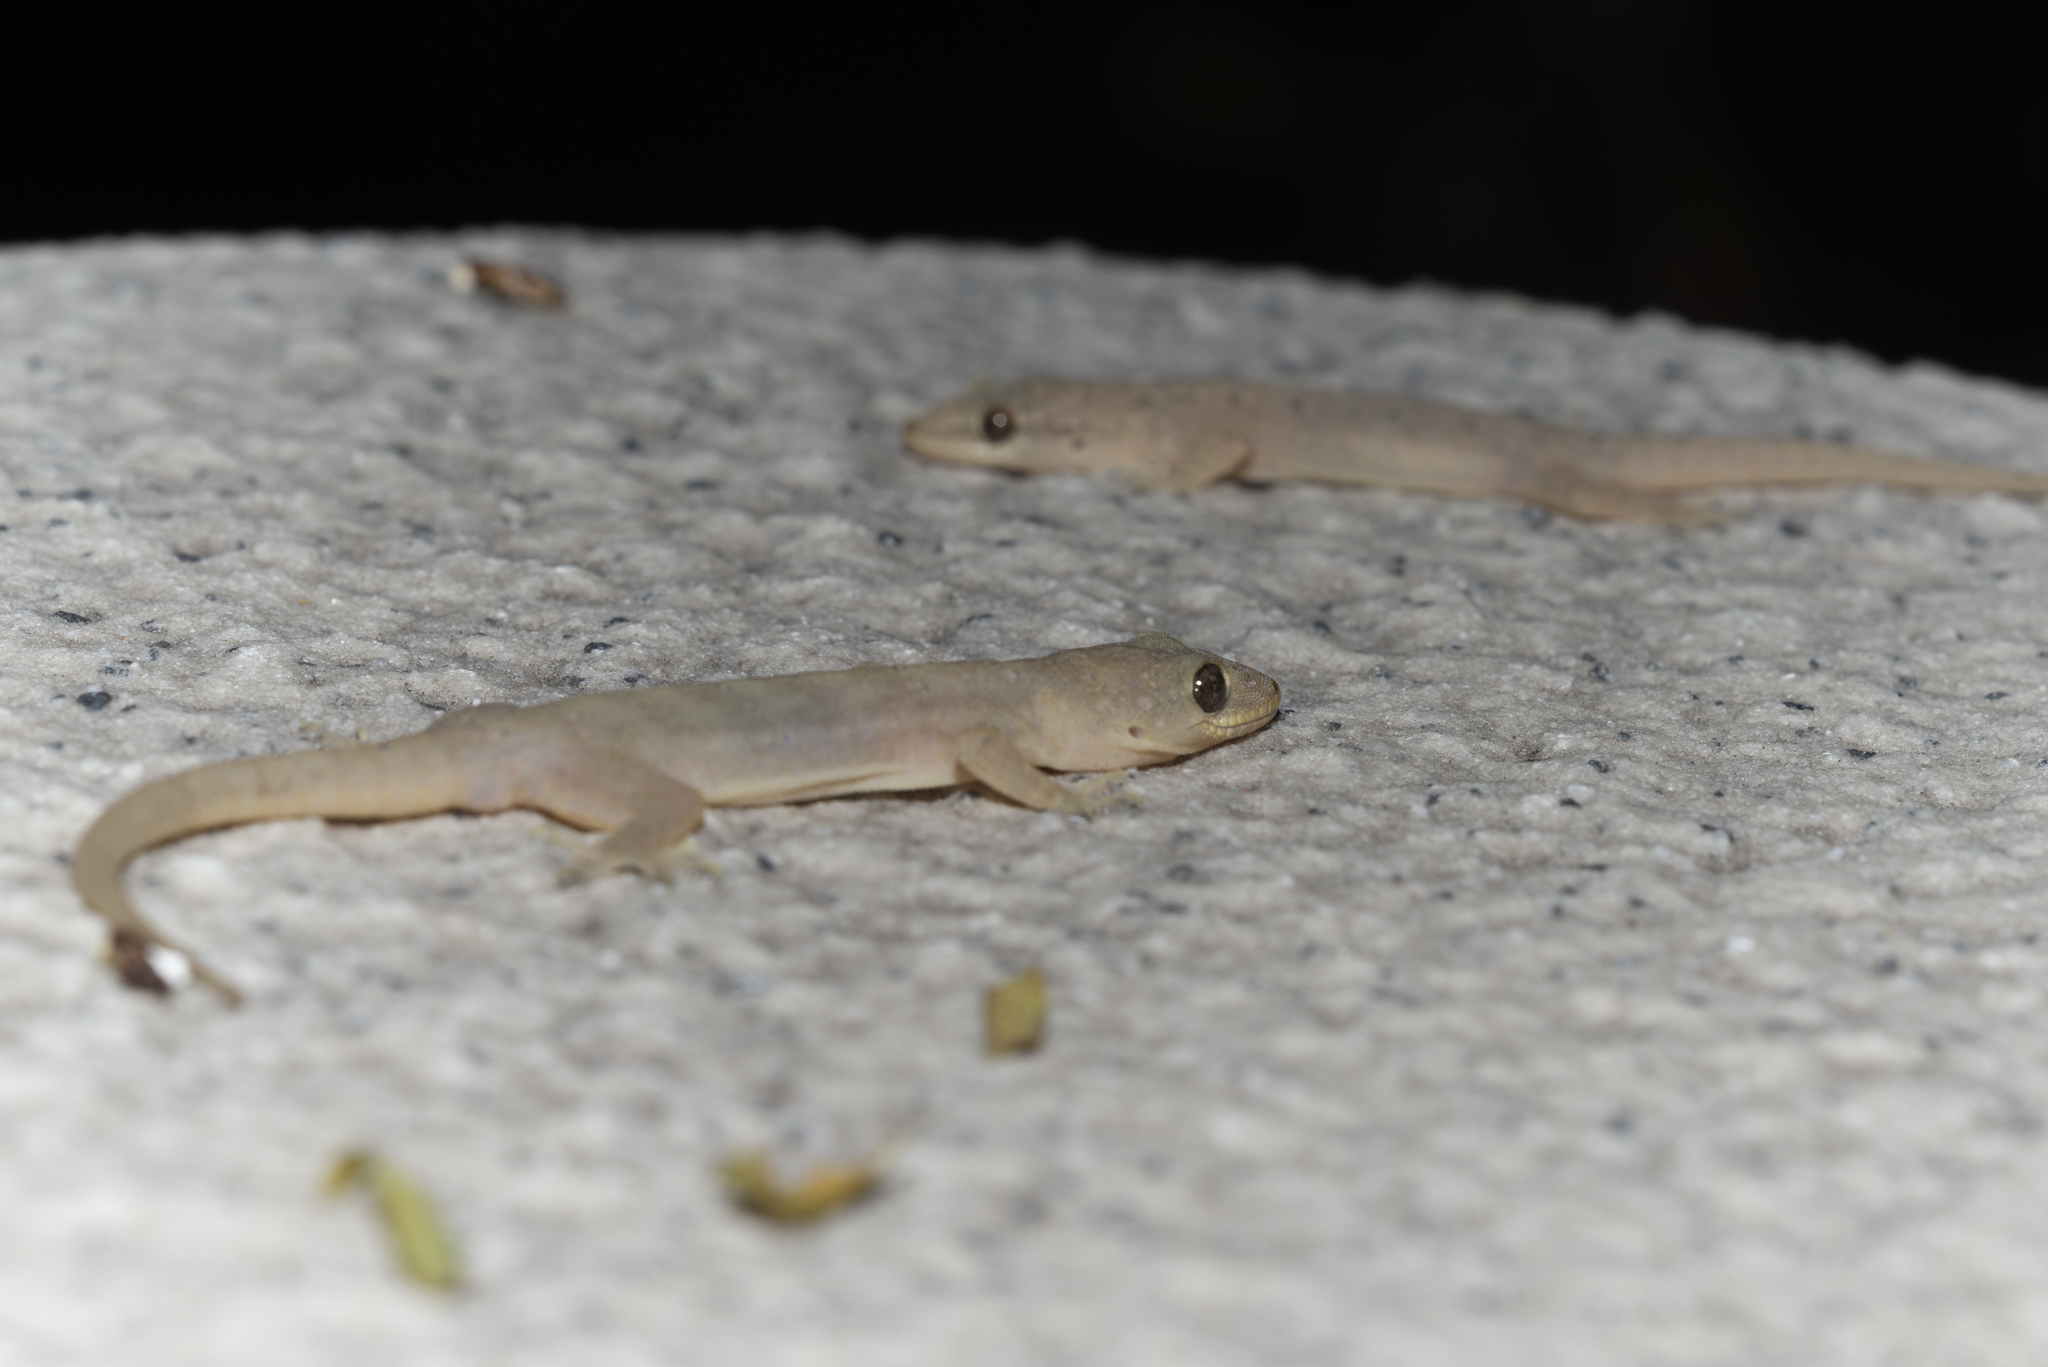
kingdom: Animalia
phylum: Chordata
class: Squamata
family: Gekkonidae
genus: Gehyra
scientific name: Gehyra mutilata
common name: Stump-toed gecko
